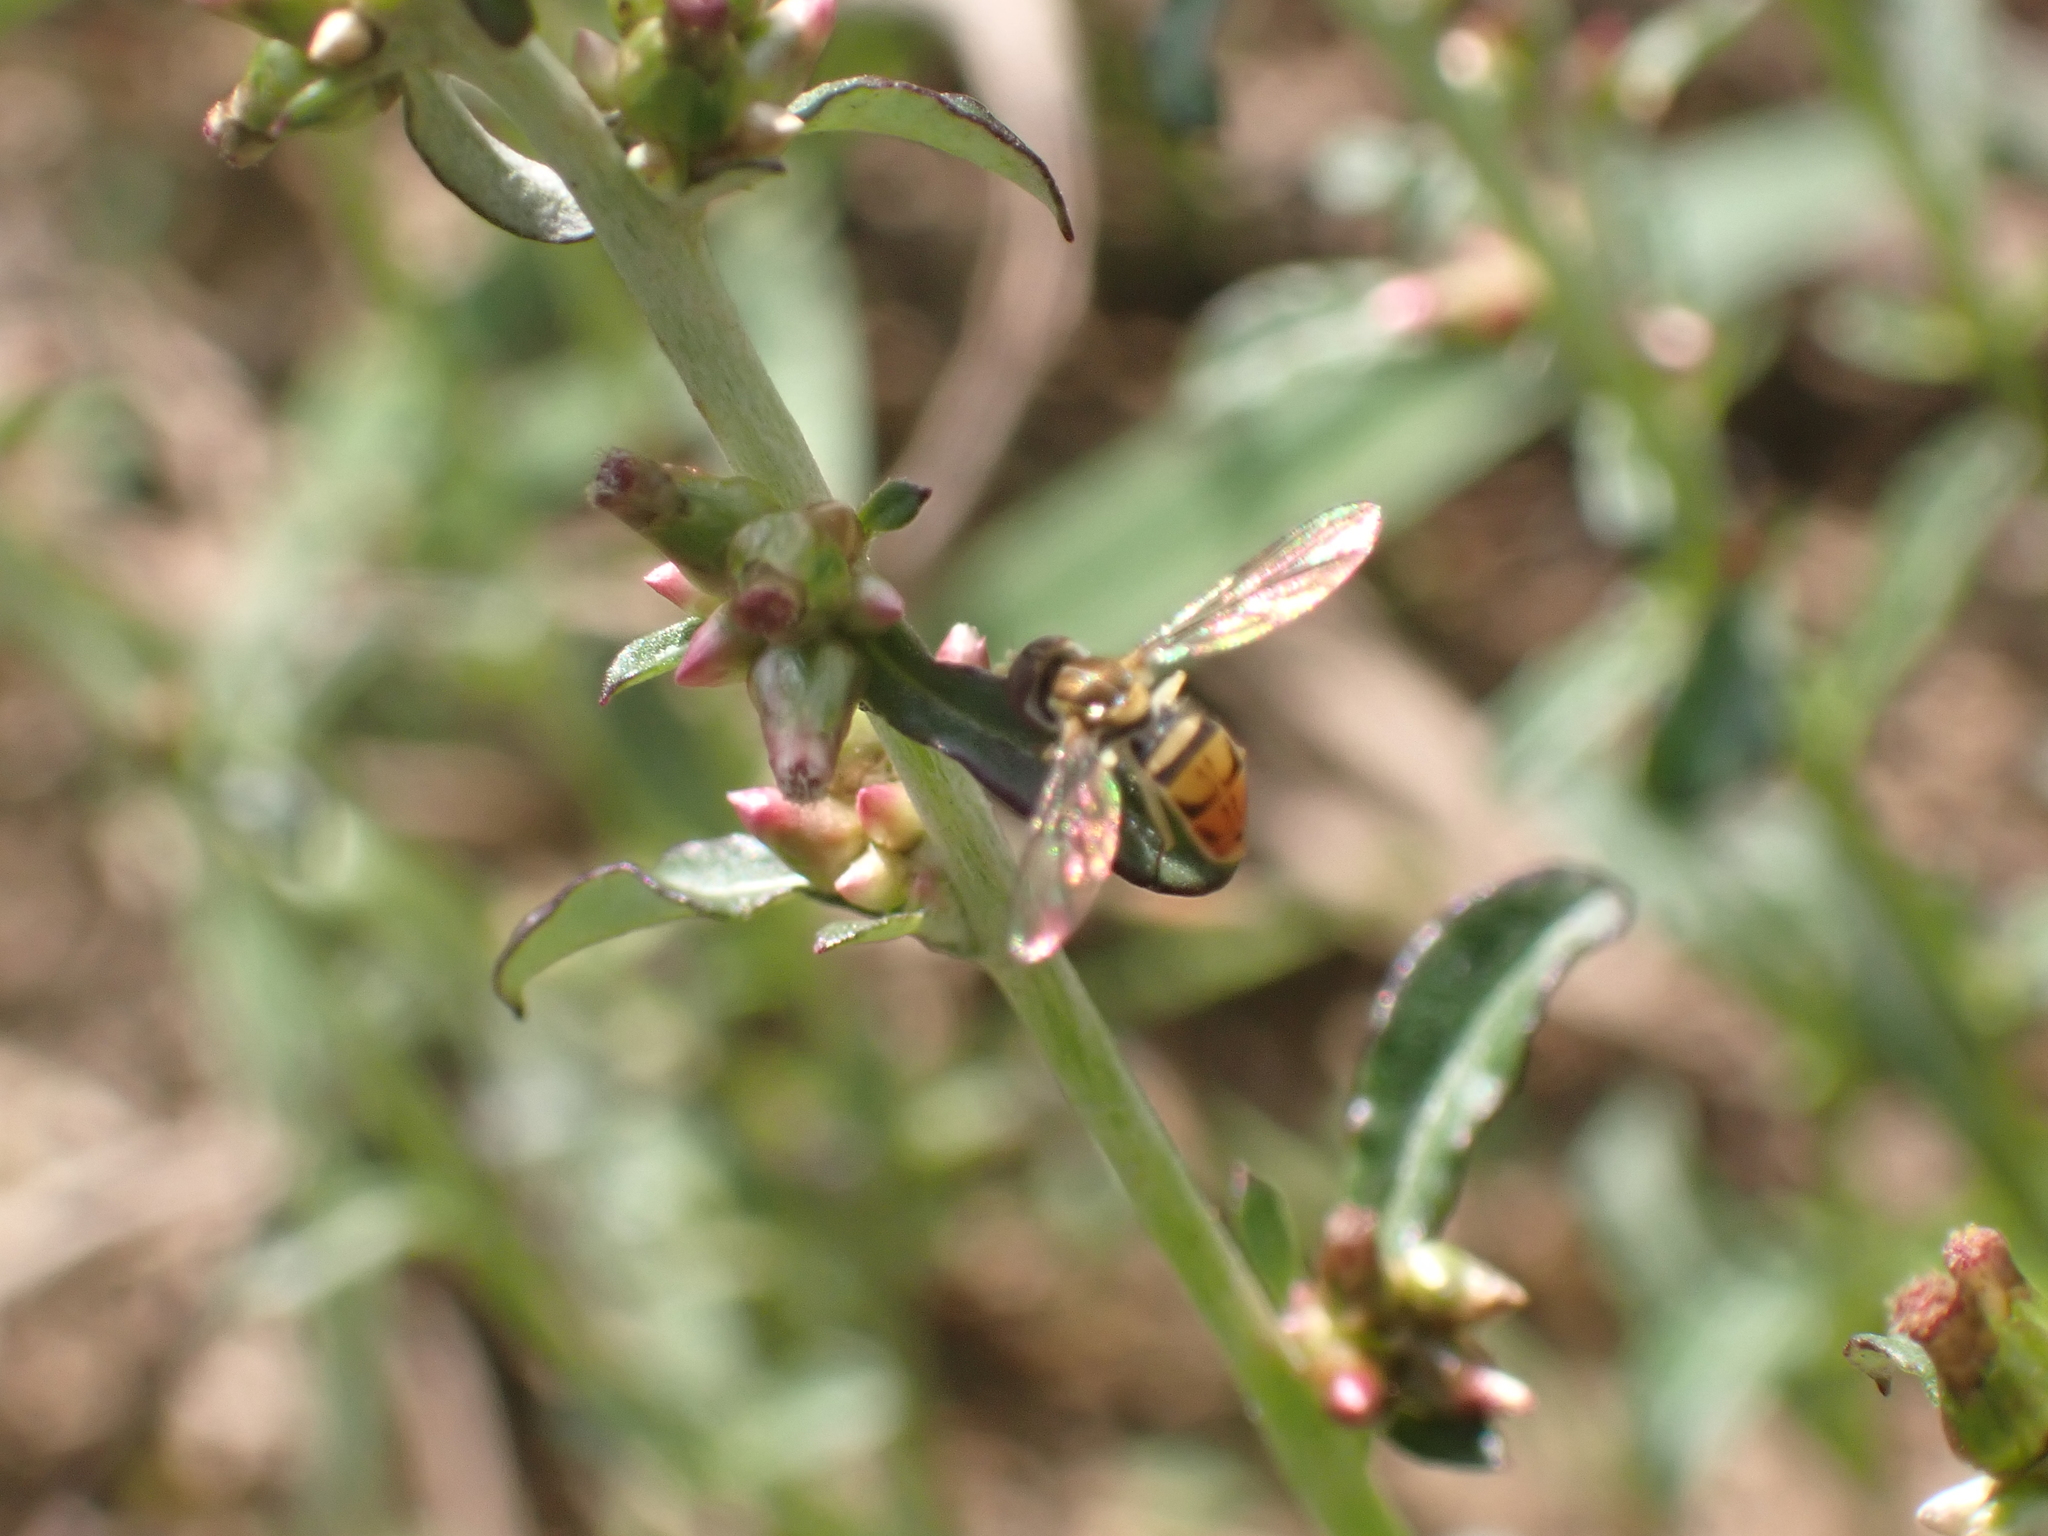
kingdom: Animalia
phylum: Arthropoda
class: Insecta
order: Diptera
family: Syrphidae
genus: Toxomerus
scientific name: Toxomerus marginatus
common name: Syrphid fly
